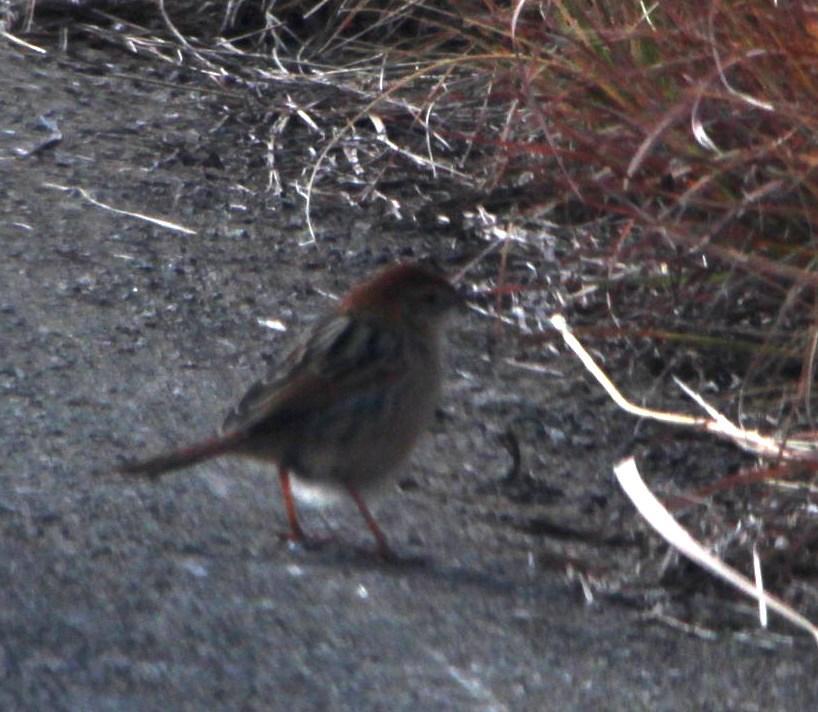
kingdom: Animalia
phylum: Chordata
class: Aves
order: Passeriformes
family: Cisticolidae
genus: Cisticola
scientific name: Cisticola tinniens
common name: Levaillant's cisticola
